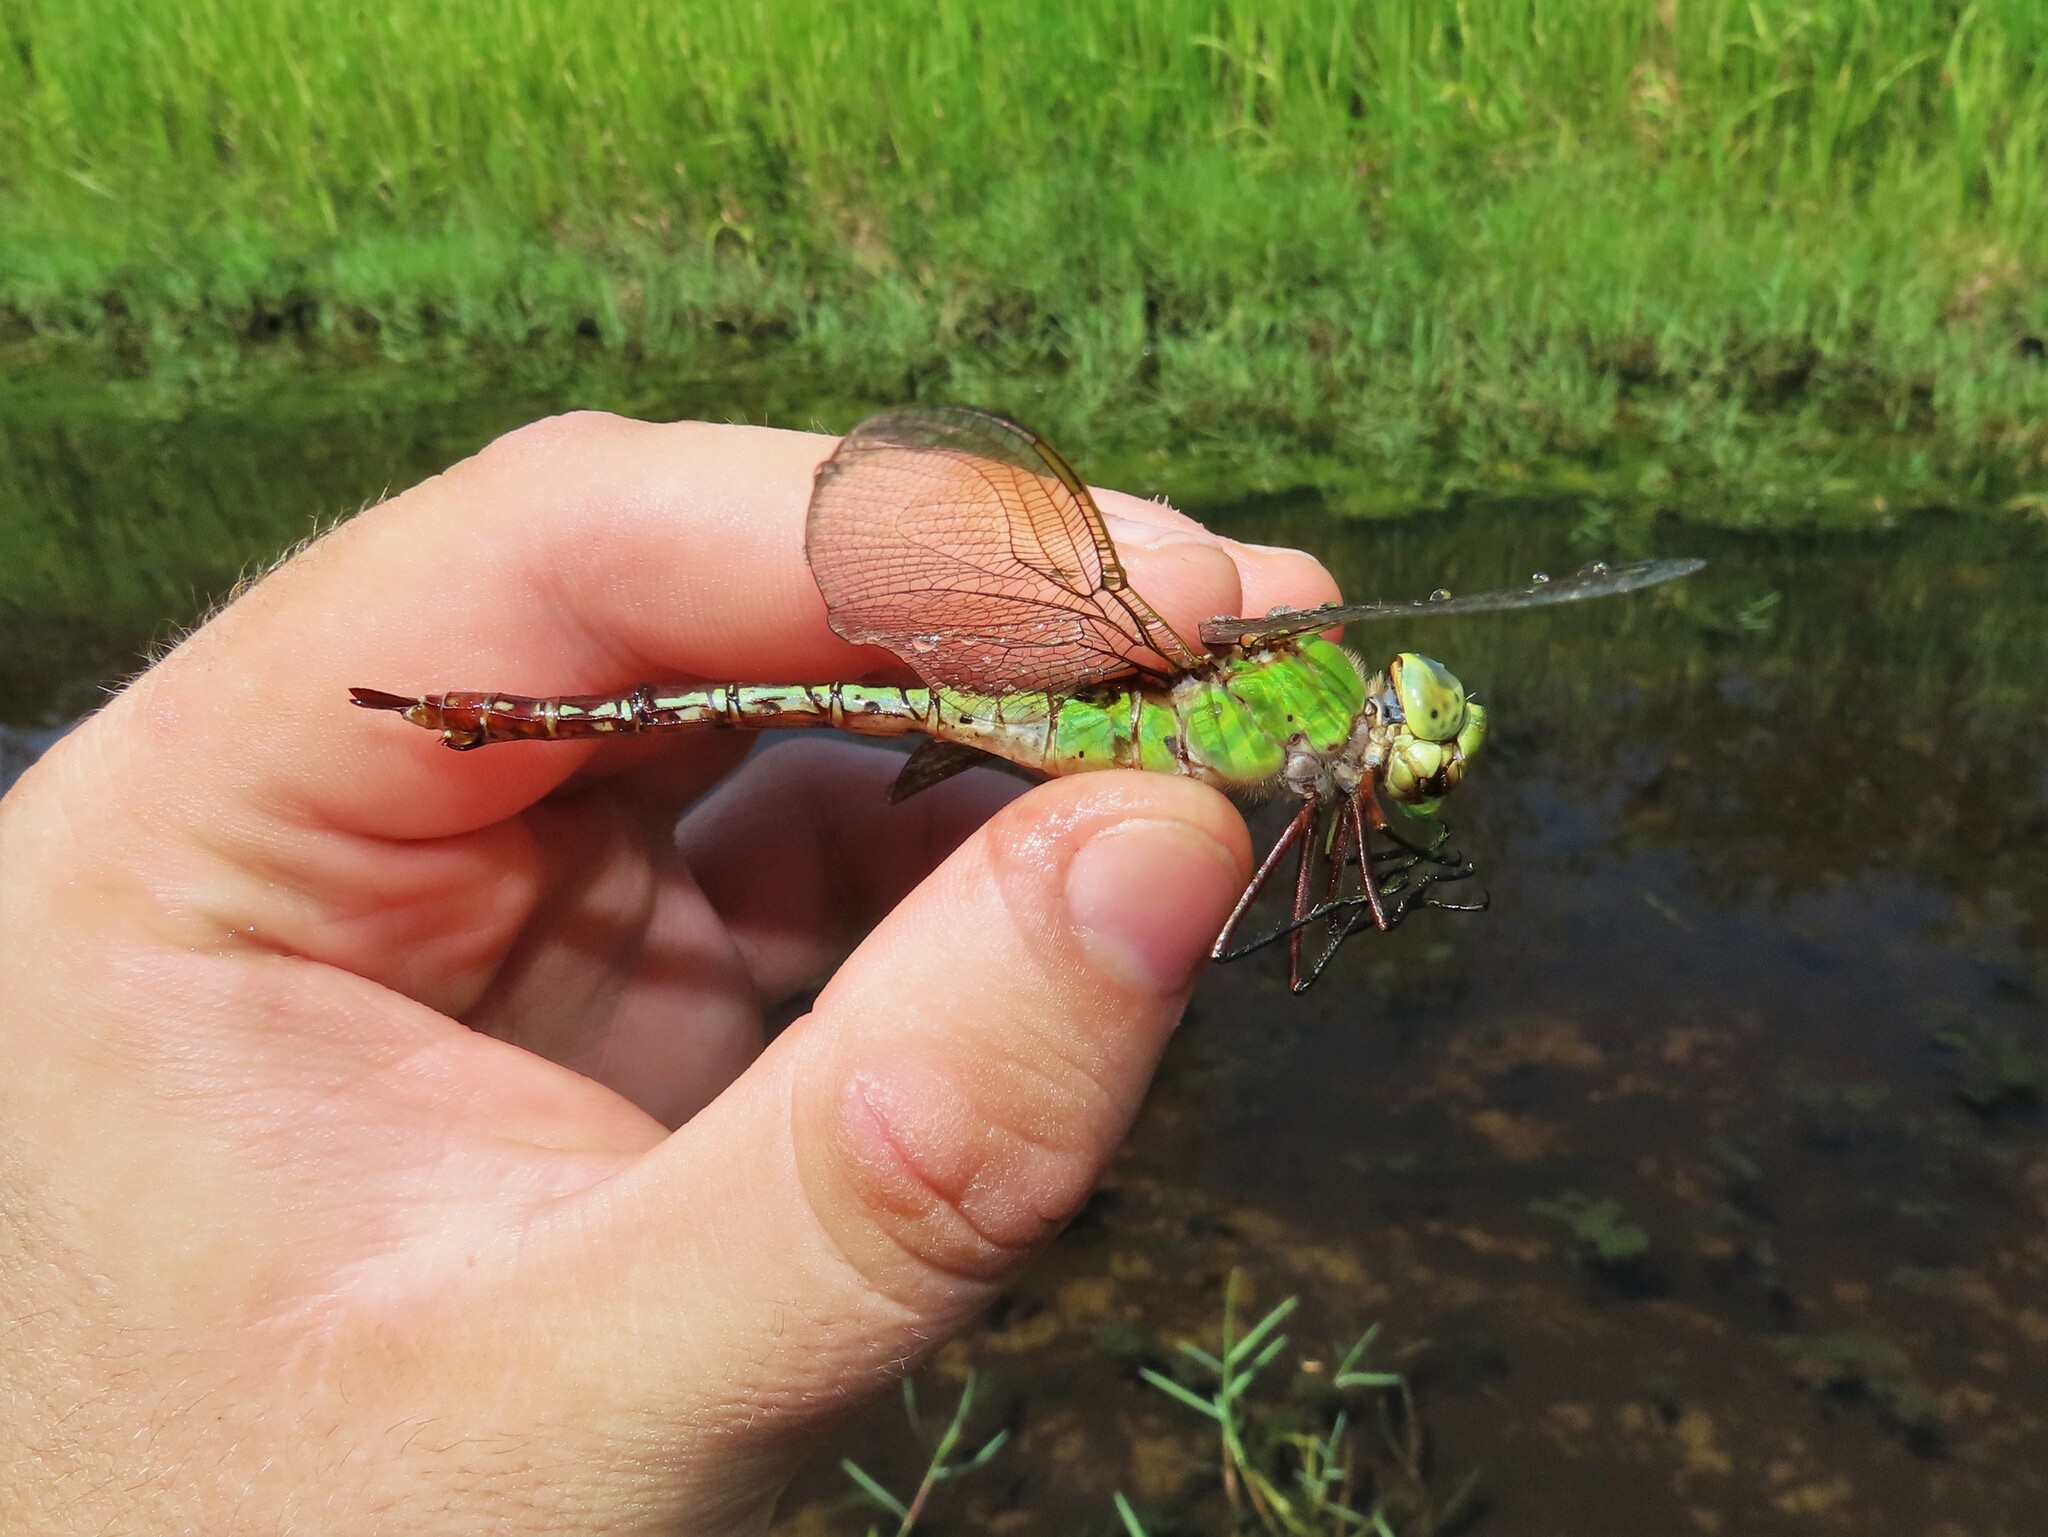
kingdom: Animalia
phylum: Arthropoda
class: Insecta
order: Odonata
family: Aeshnidae
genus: Anax
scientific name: Anax junius
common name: Common green darner
